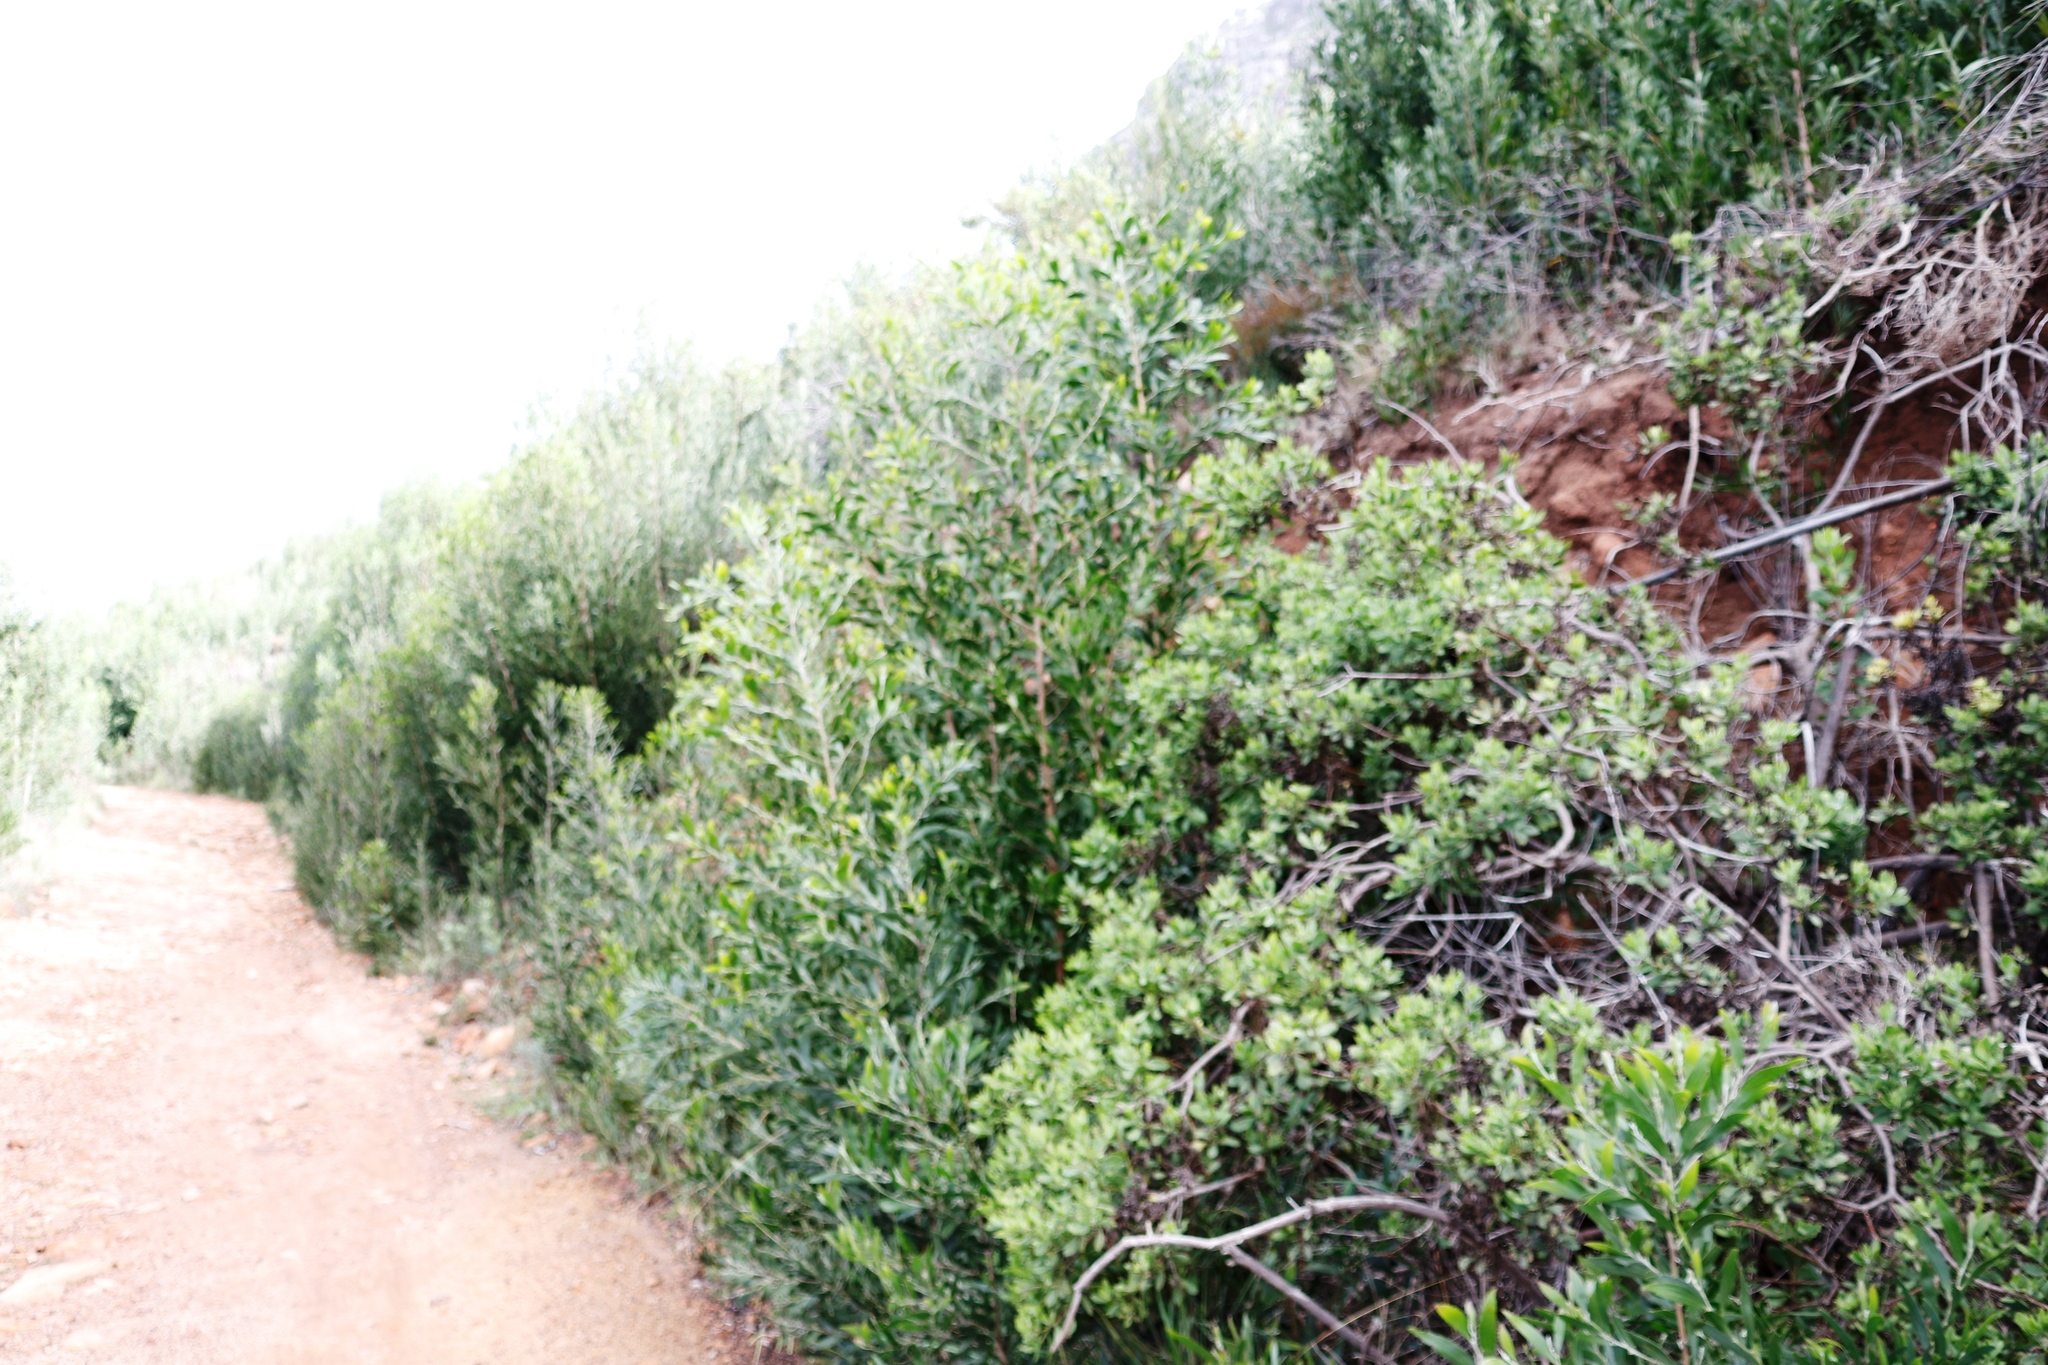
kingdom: Plantae
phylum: Tracheophyta
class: Magnoliopsida
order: Fabales
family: Fabaceae
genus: Acacia
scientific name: Acacia melanoxylon
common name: Blackwood
